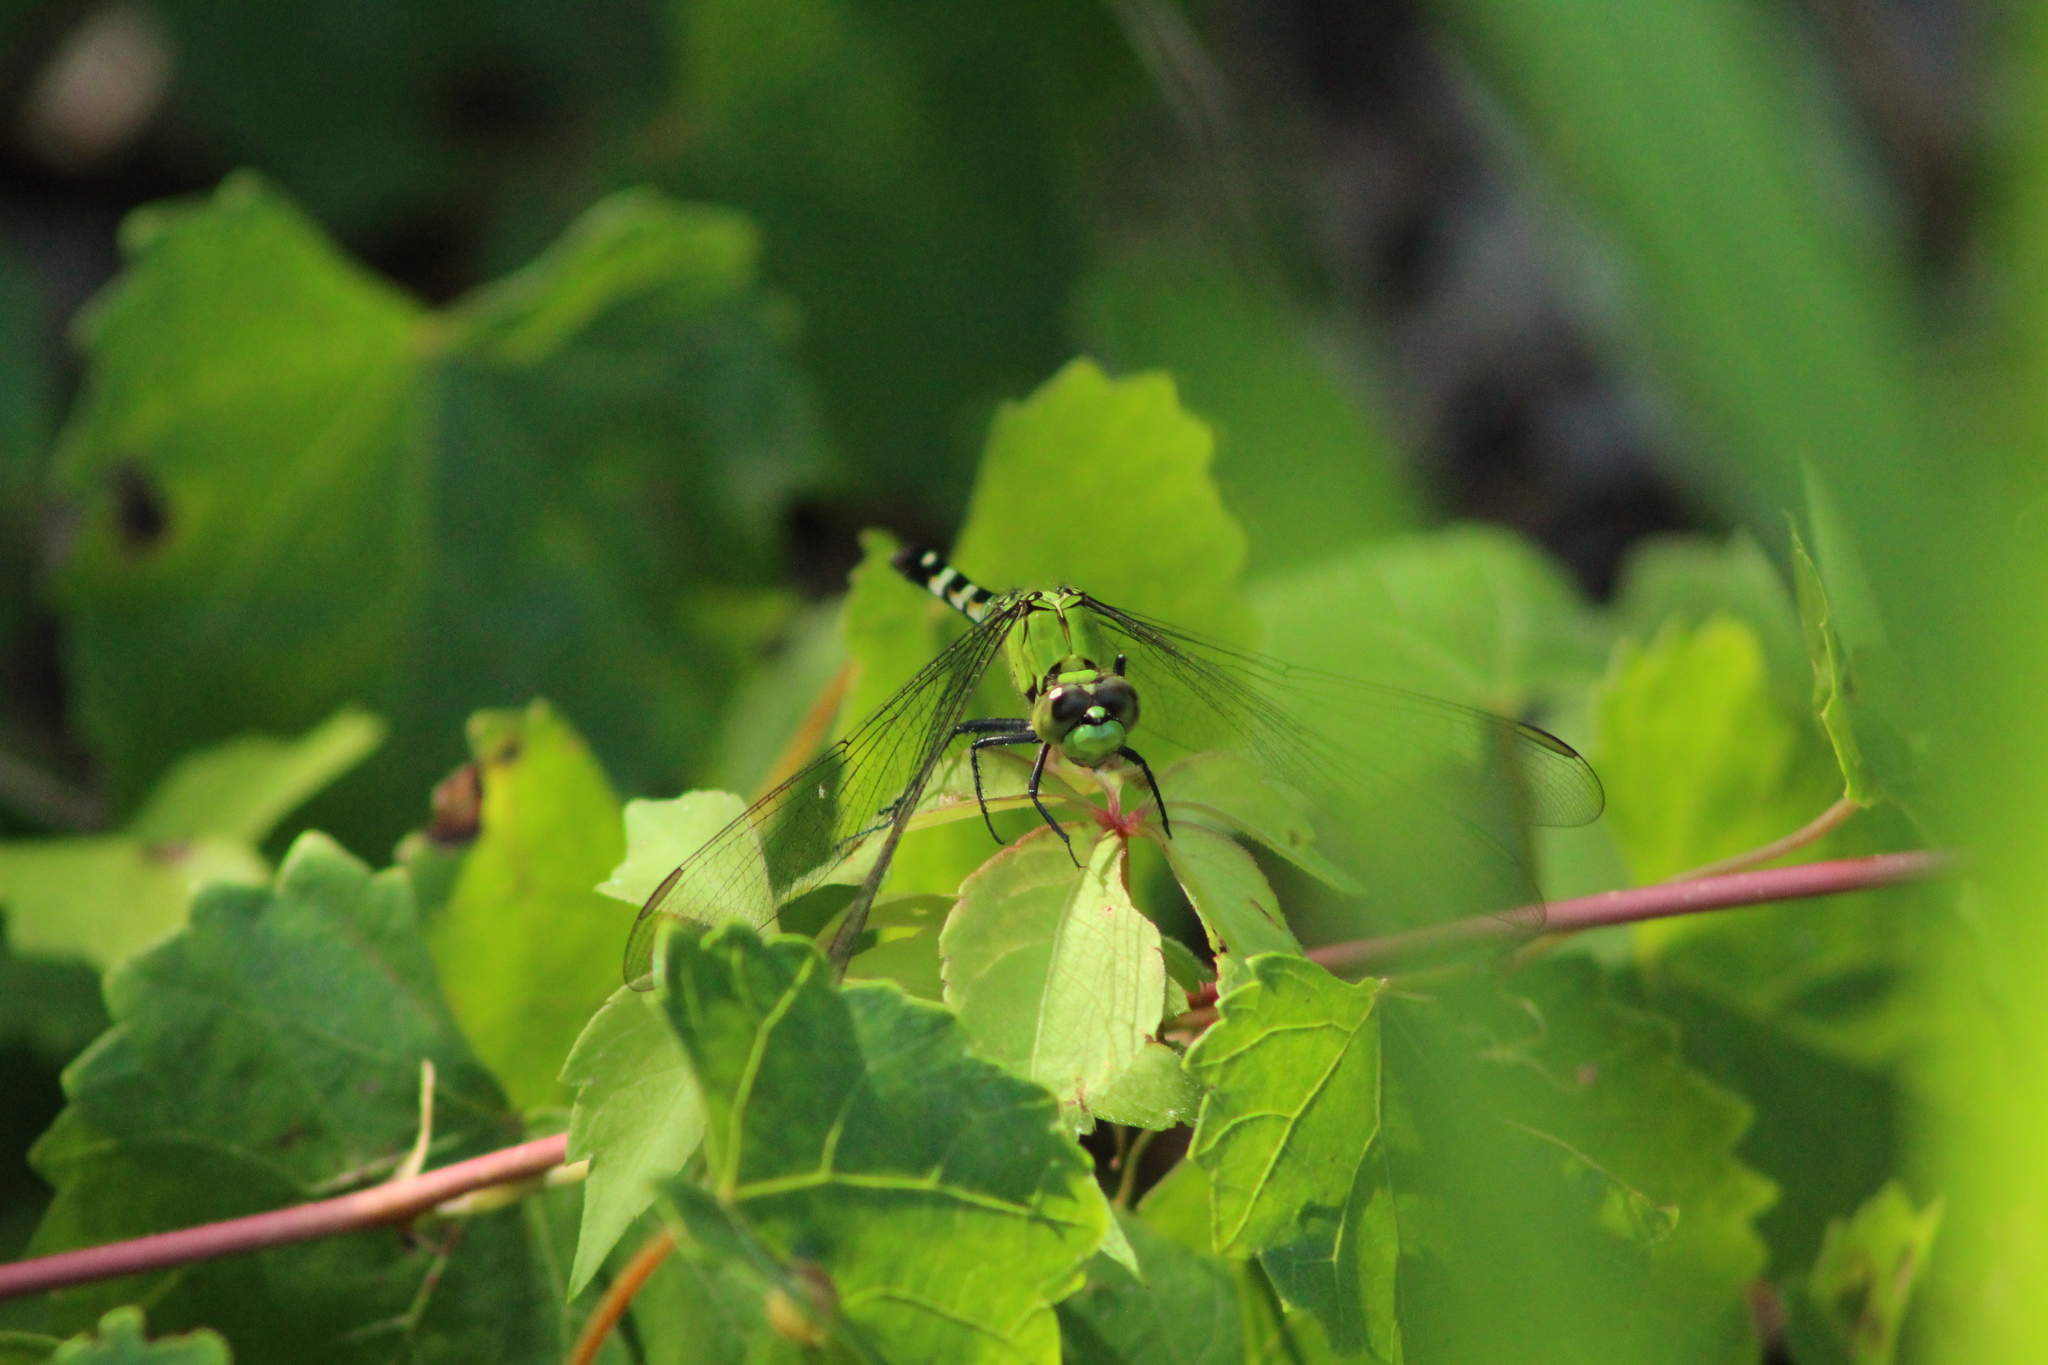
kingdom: Animalia
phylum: Arthropoda
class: Insecta
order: Odonata
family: Libellulidae
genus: Erythemis
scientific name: Erythemis simplicicollis
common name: Eastern pondhawk
